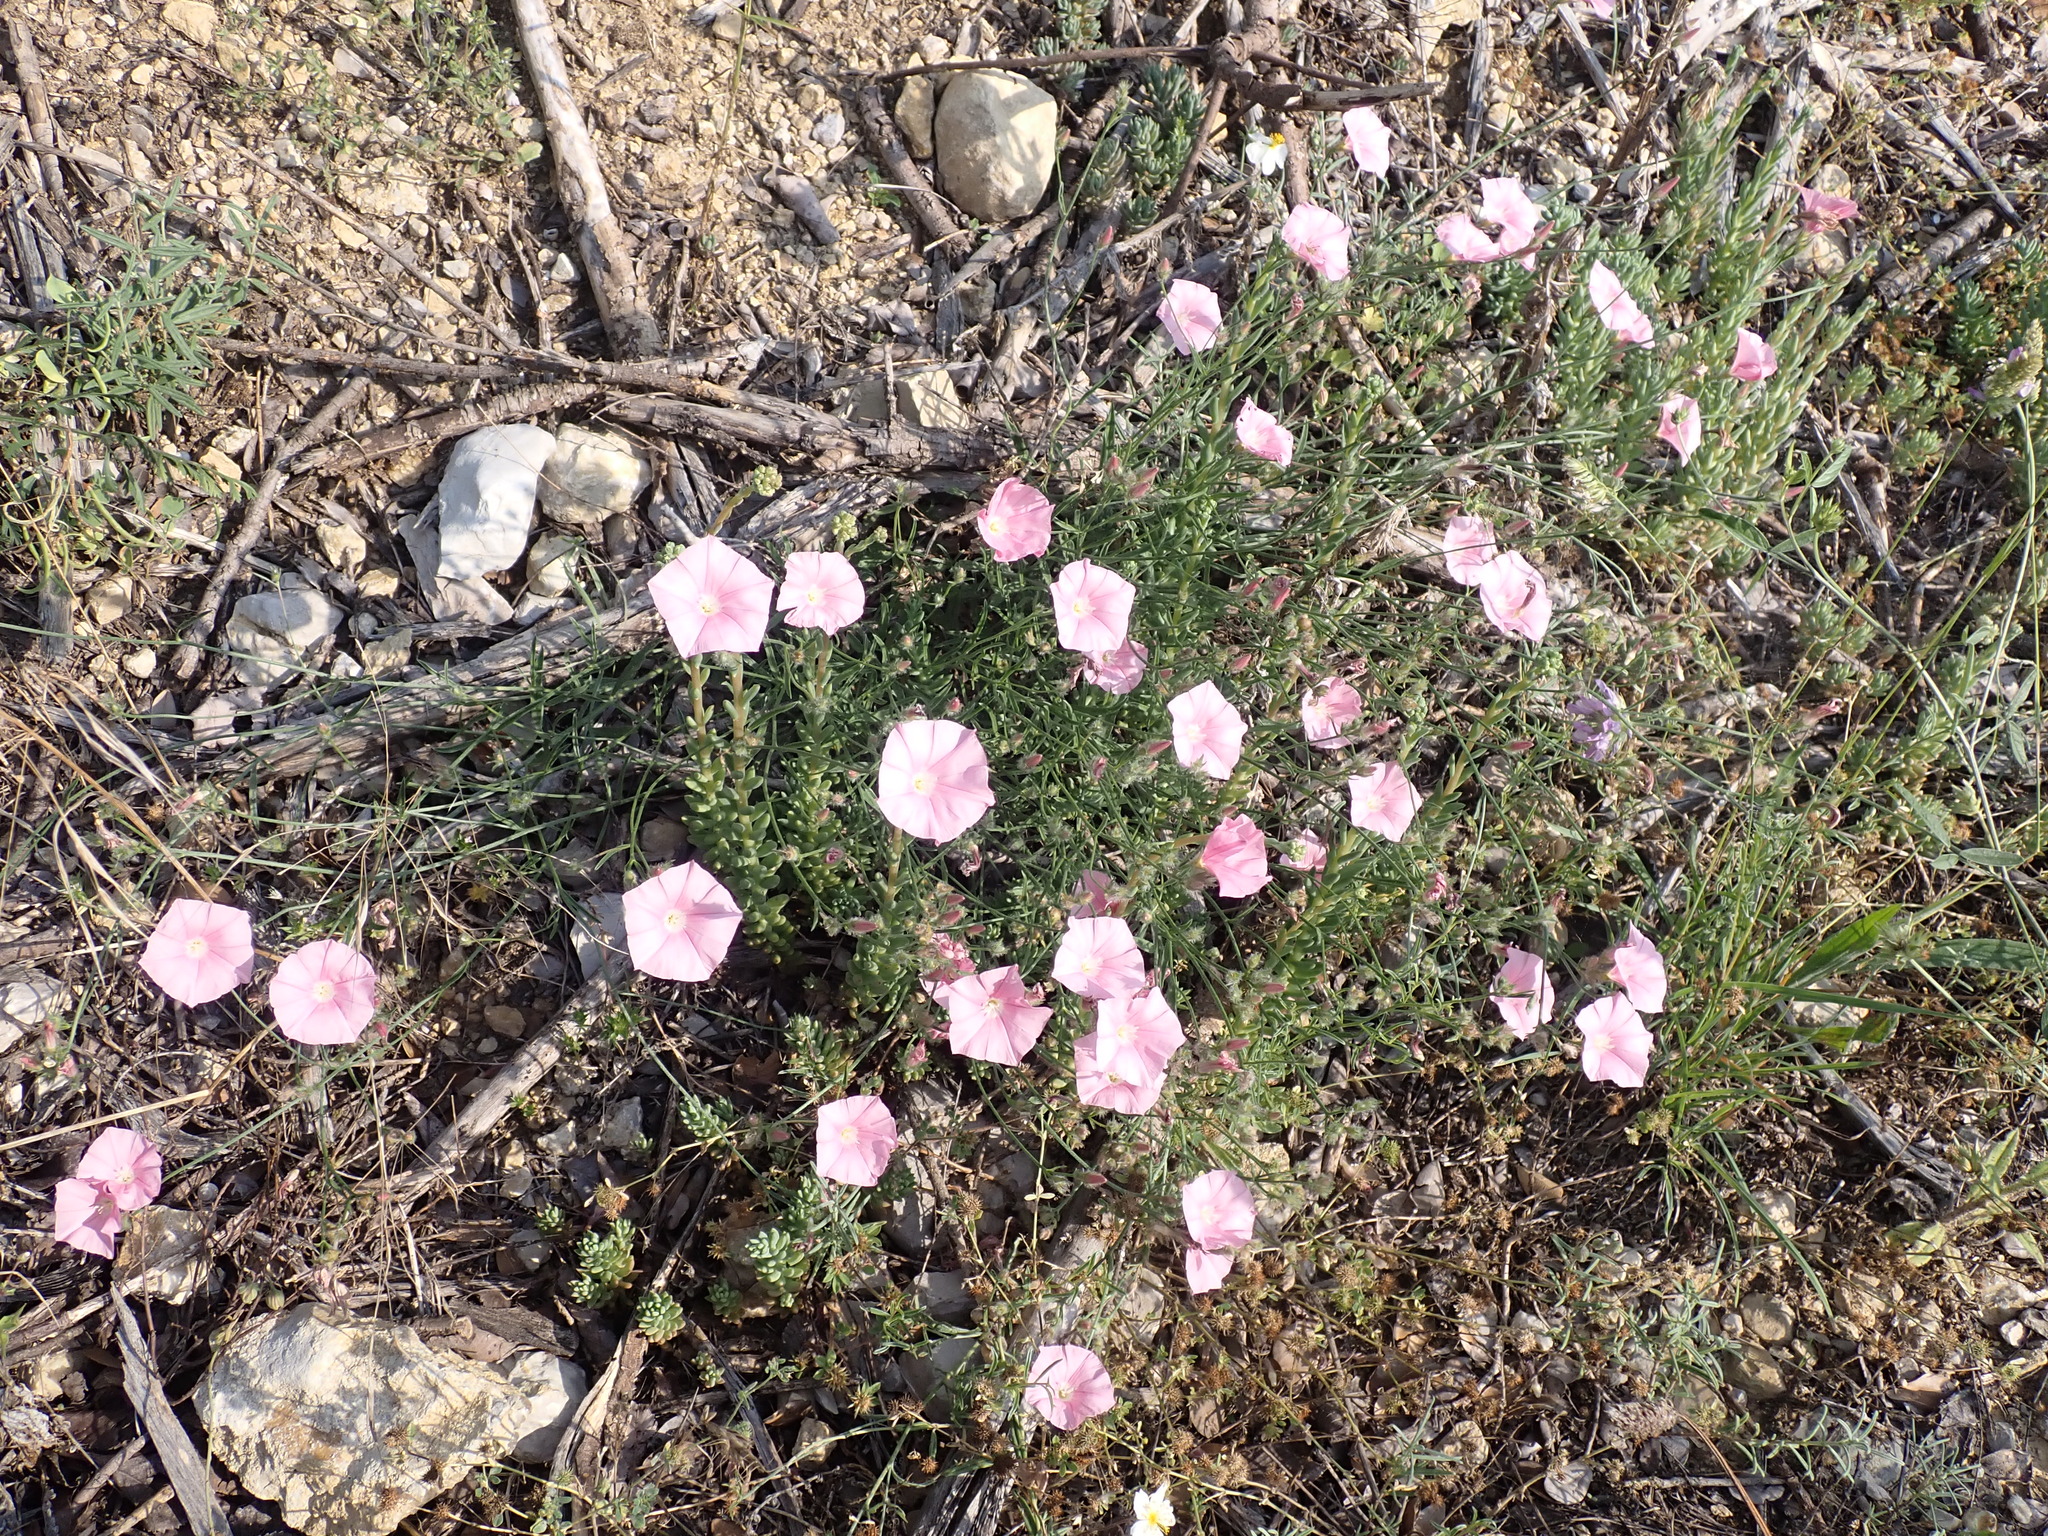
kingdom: Plantae
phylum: Tracheophyta
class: Magnoliopsida
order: Solanales
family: Convolvulaceae
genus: Convolvulus
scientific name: Convolvulus cantabrica
